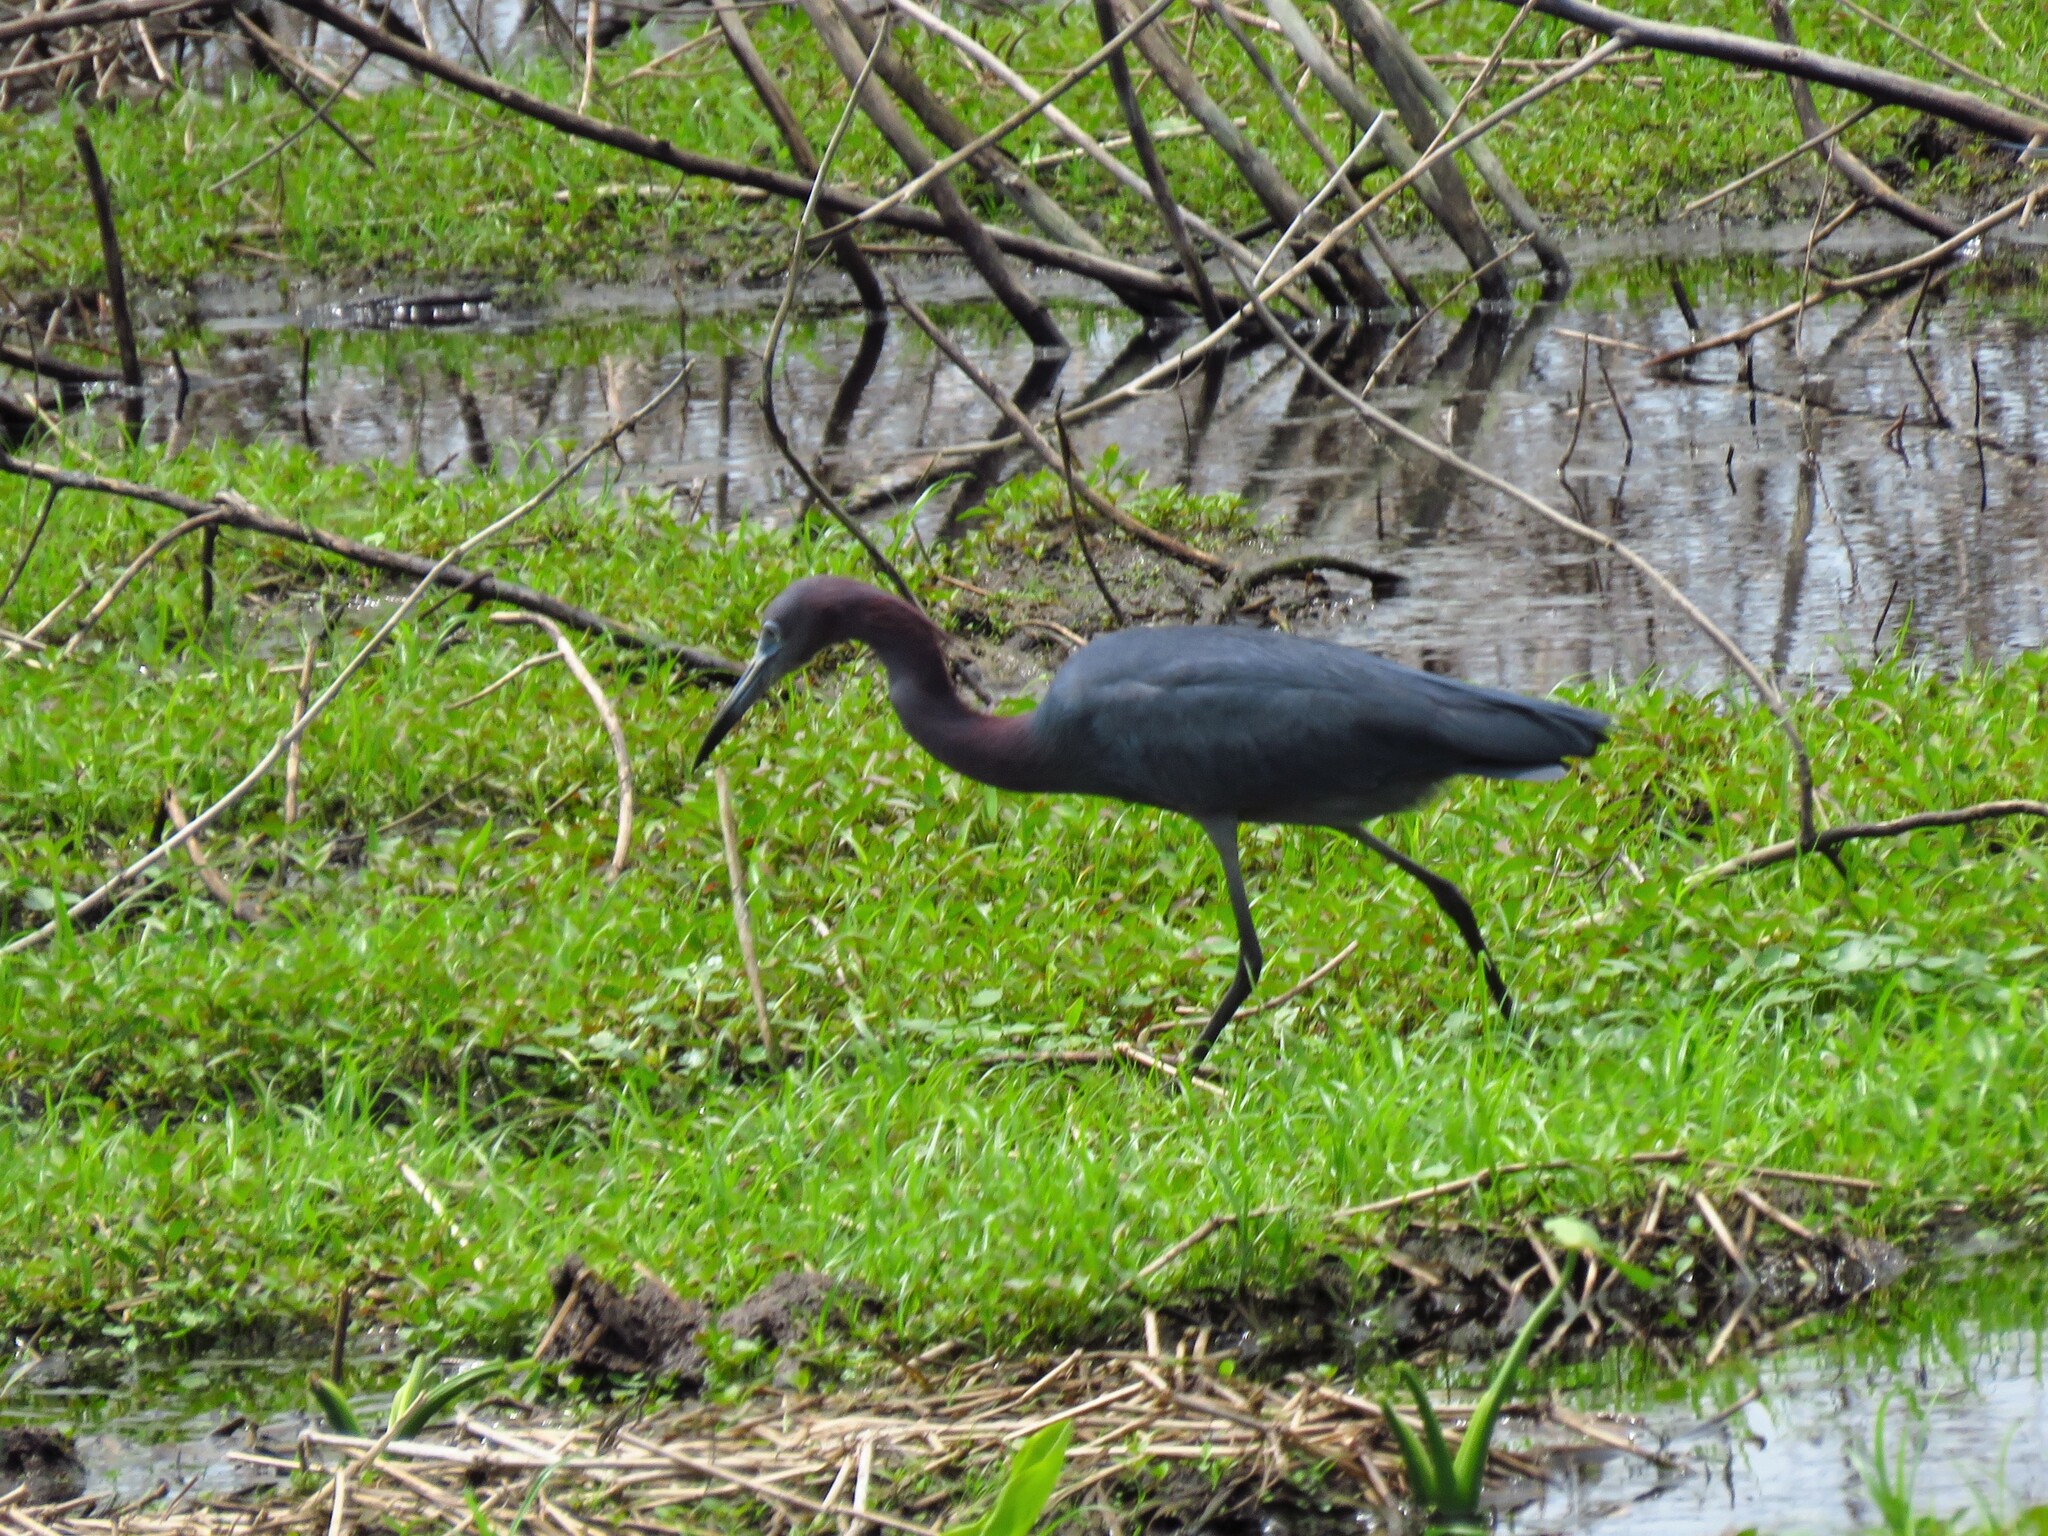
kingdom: Animalia
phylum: Chordata
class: Aves
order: Pelecaniformes
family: Ardeidae
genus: Egretta
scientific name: Egretta caerulea
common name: Little blue heron
